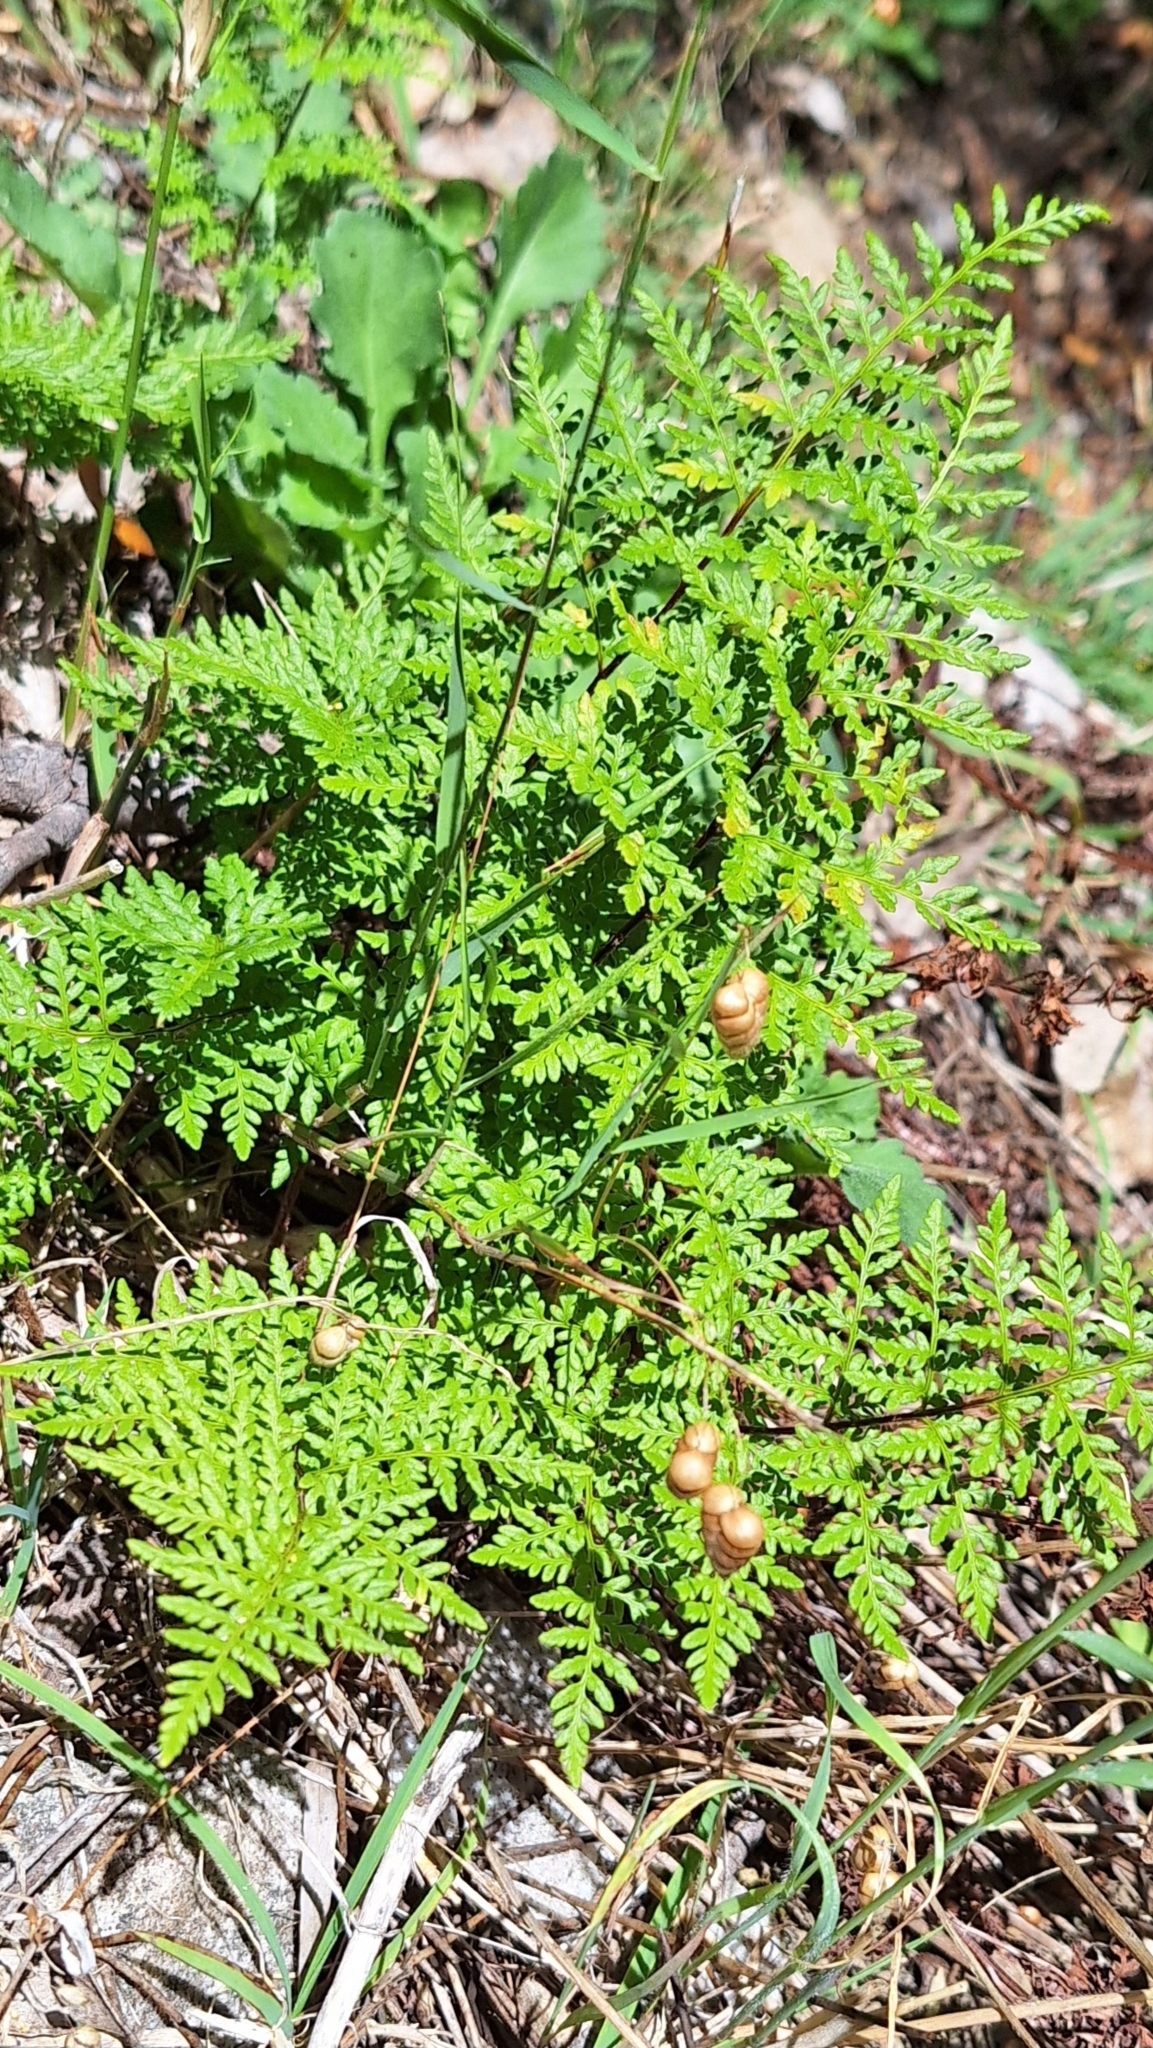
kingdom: Plantae
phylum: Tracheophyta
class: Polypodiopsida
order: Polypodiales
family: Pteridaceae
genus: Cheilanthes
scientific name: Cheilanthes austrotenuifolia
